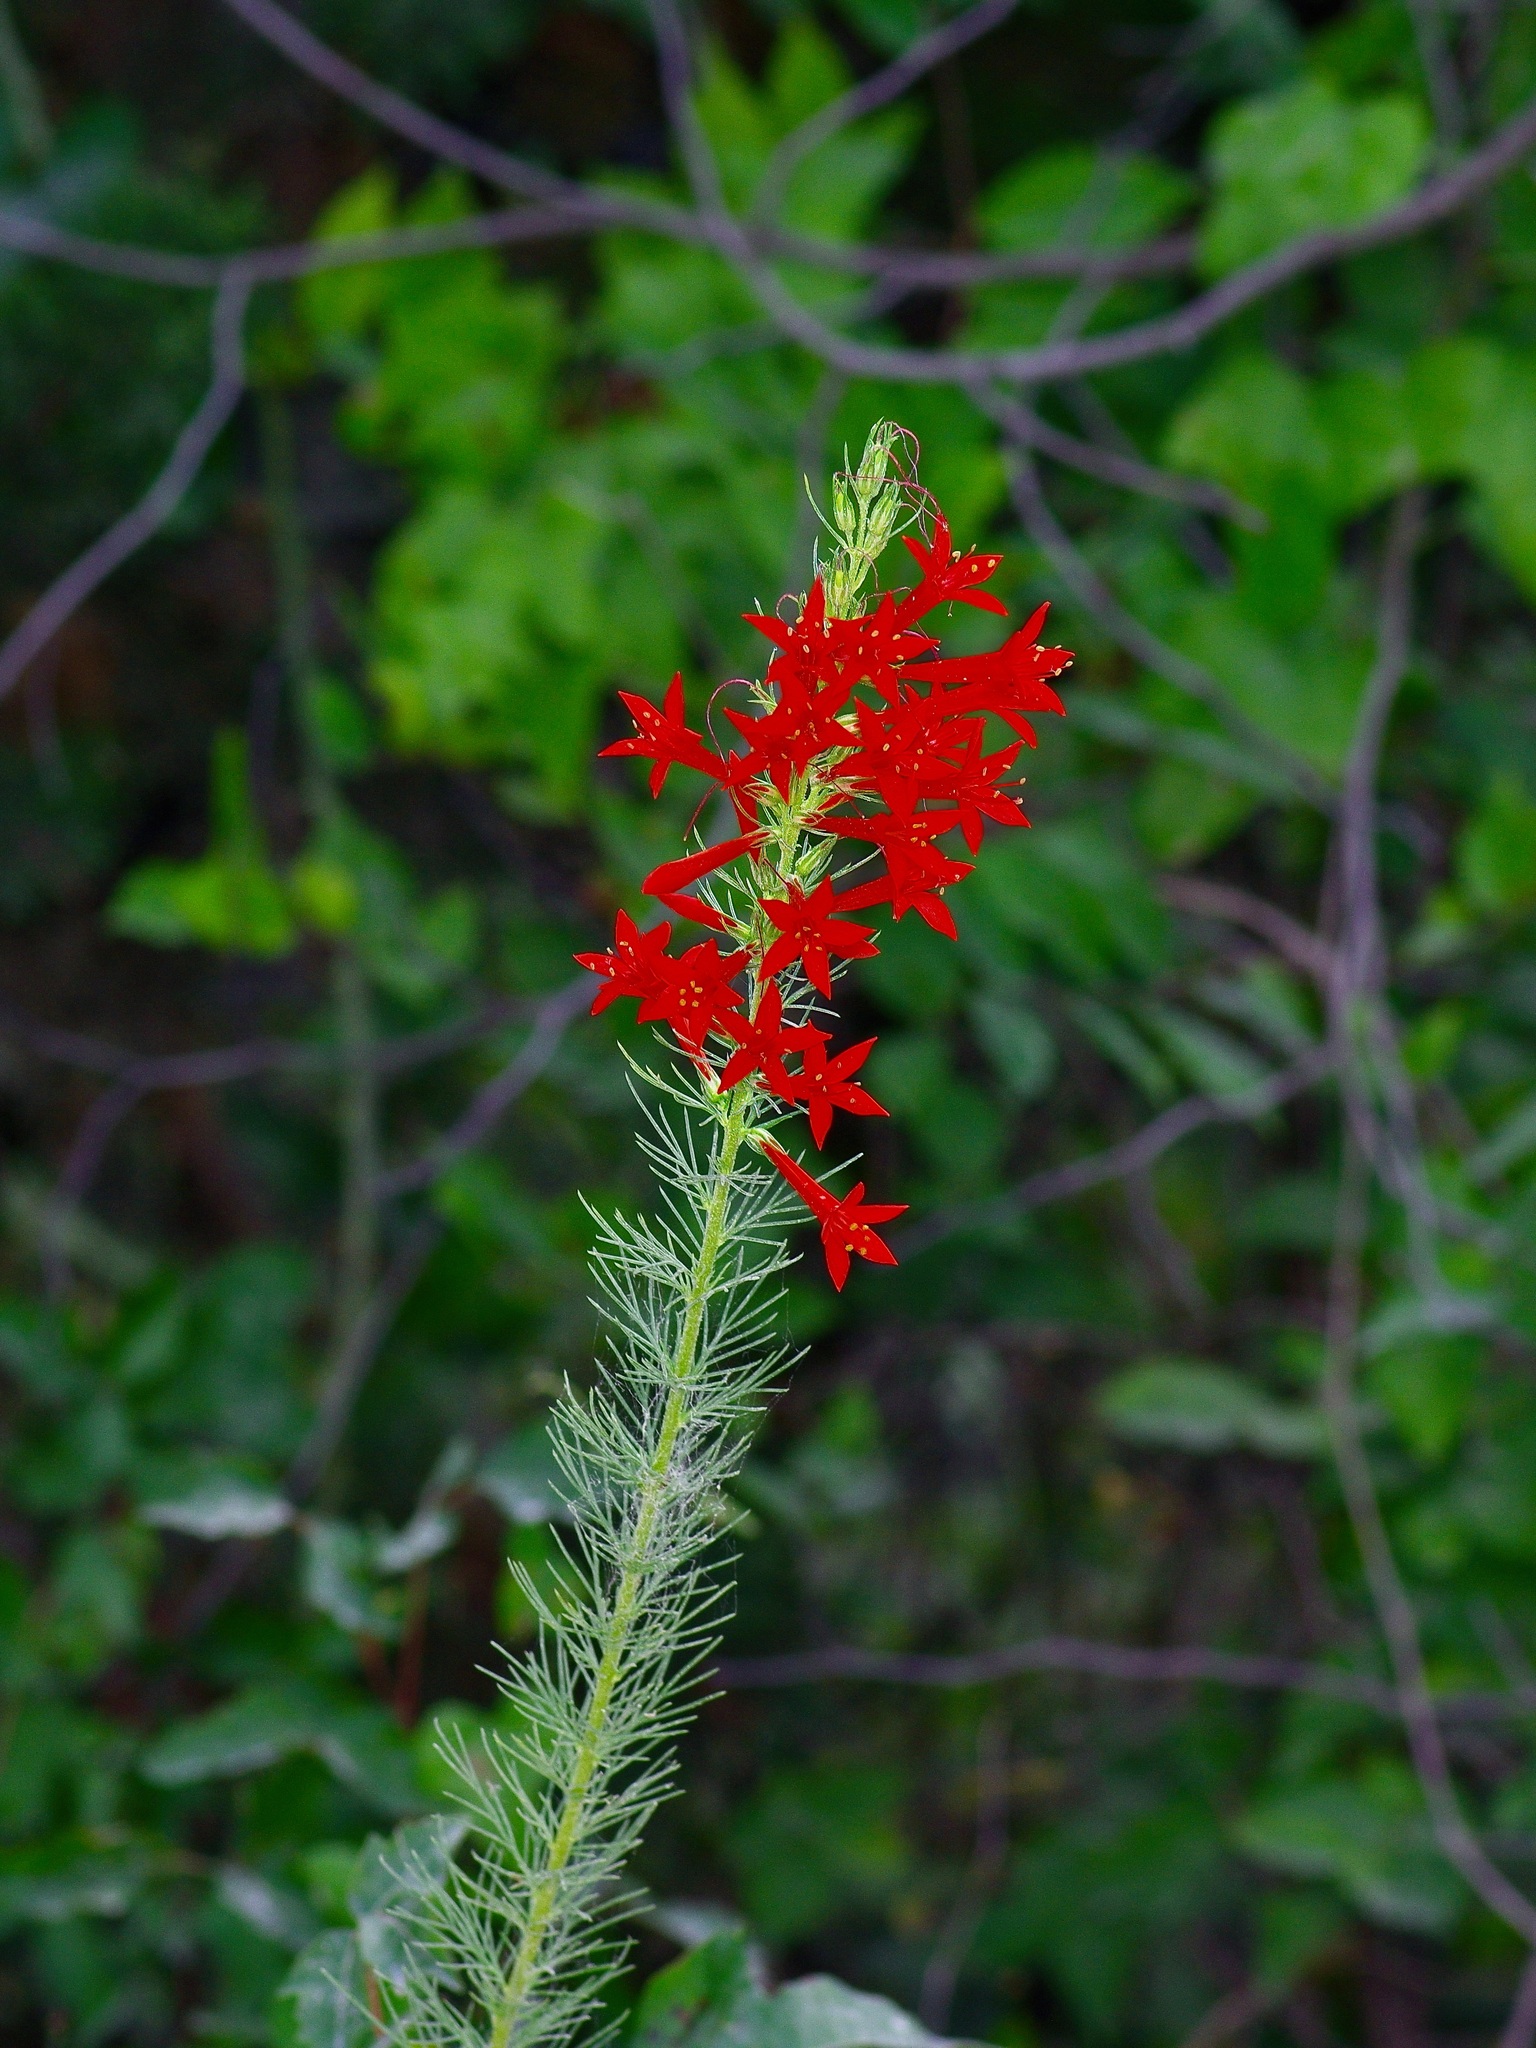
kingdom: Plantae
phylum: Tracheophyta
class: Magnoliopsida
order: Ericales
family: Polemoniaceae
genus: Ipomopsis
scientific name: Ipomopsis rubra
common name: Skyrocket
